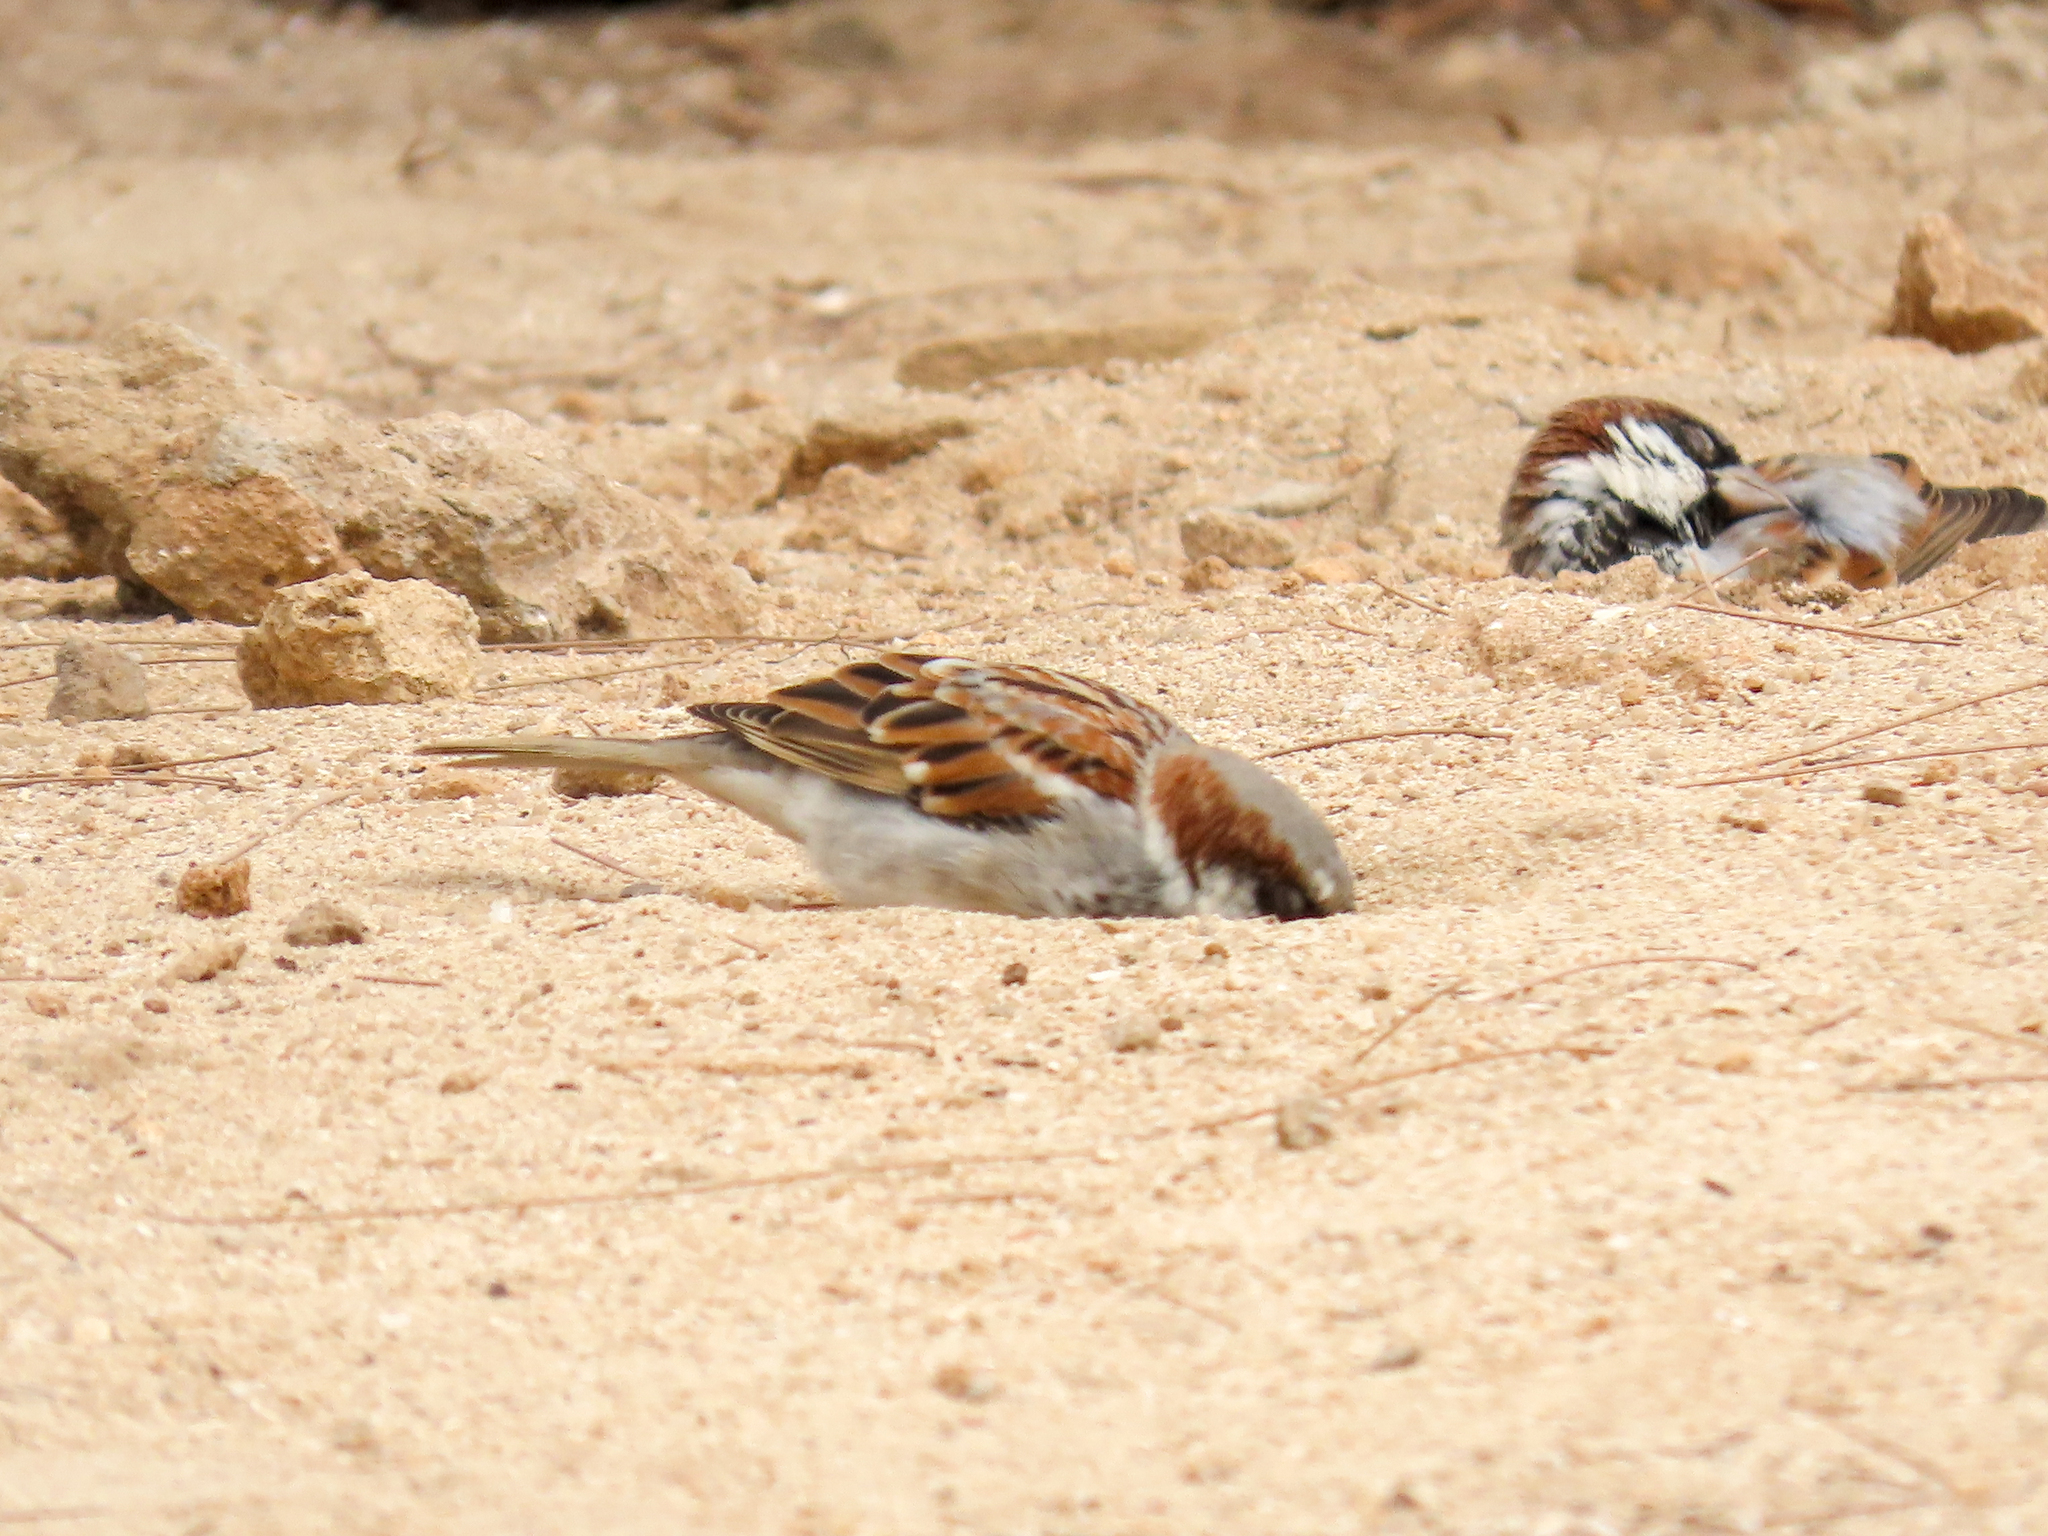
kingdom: Animalia
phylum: Chordata
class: Aves
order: Passeriformes
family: Passeridae
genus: Passer
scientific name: Passer domesticus
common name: House sparrow
